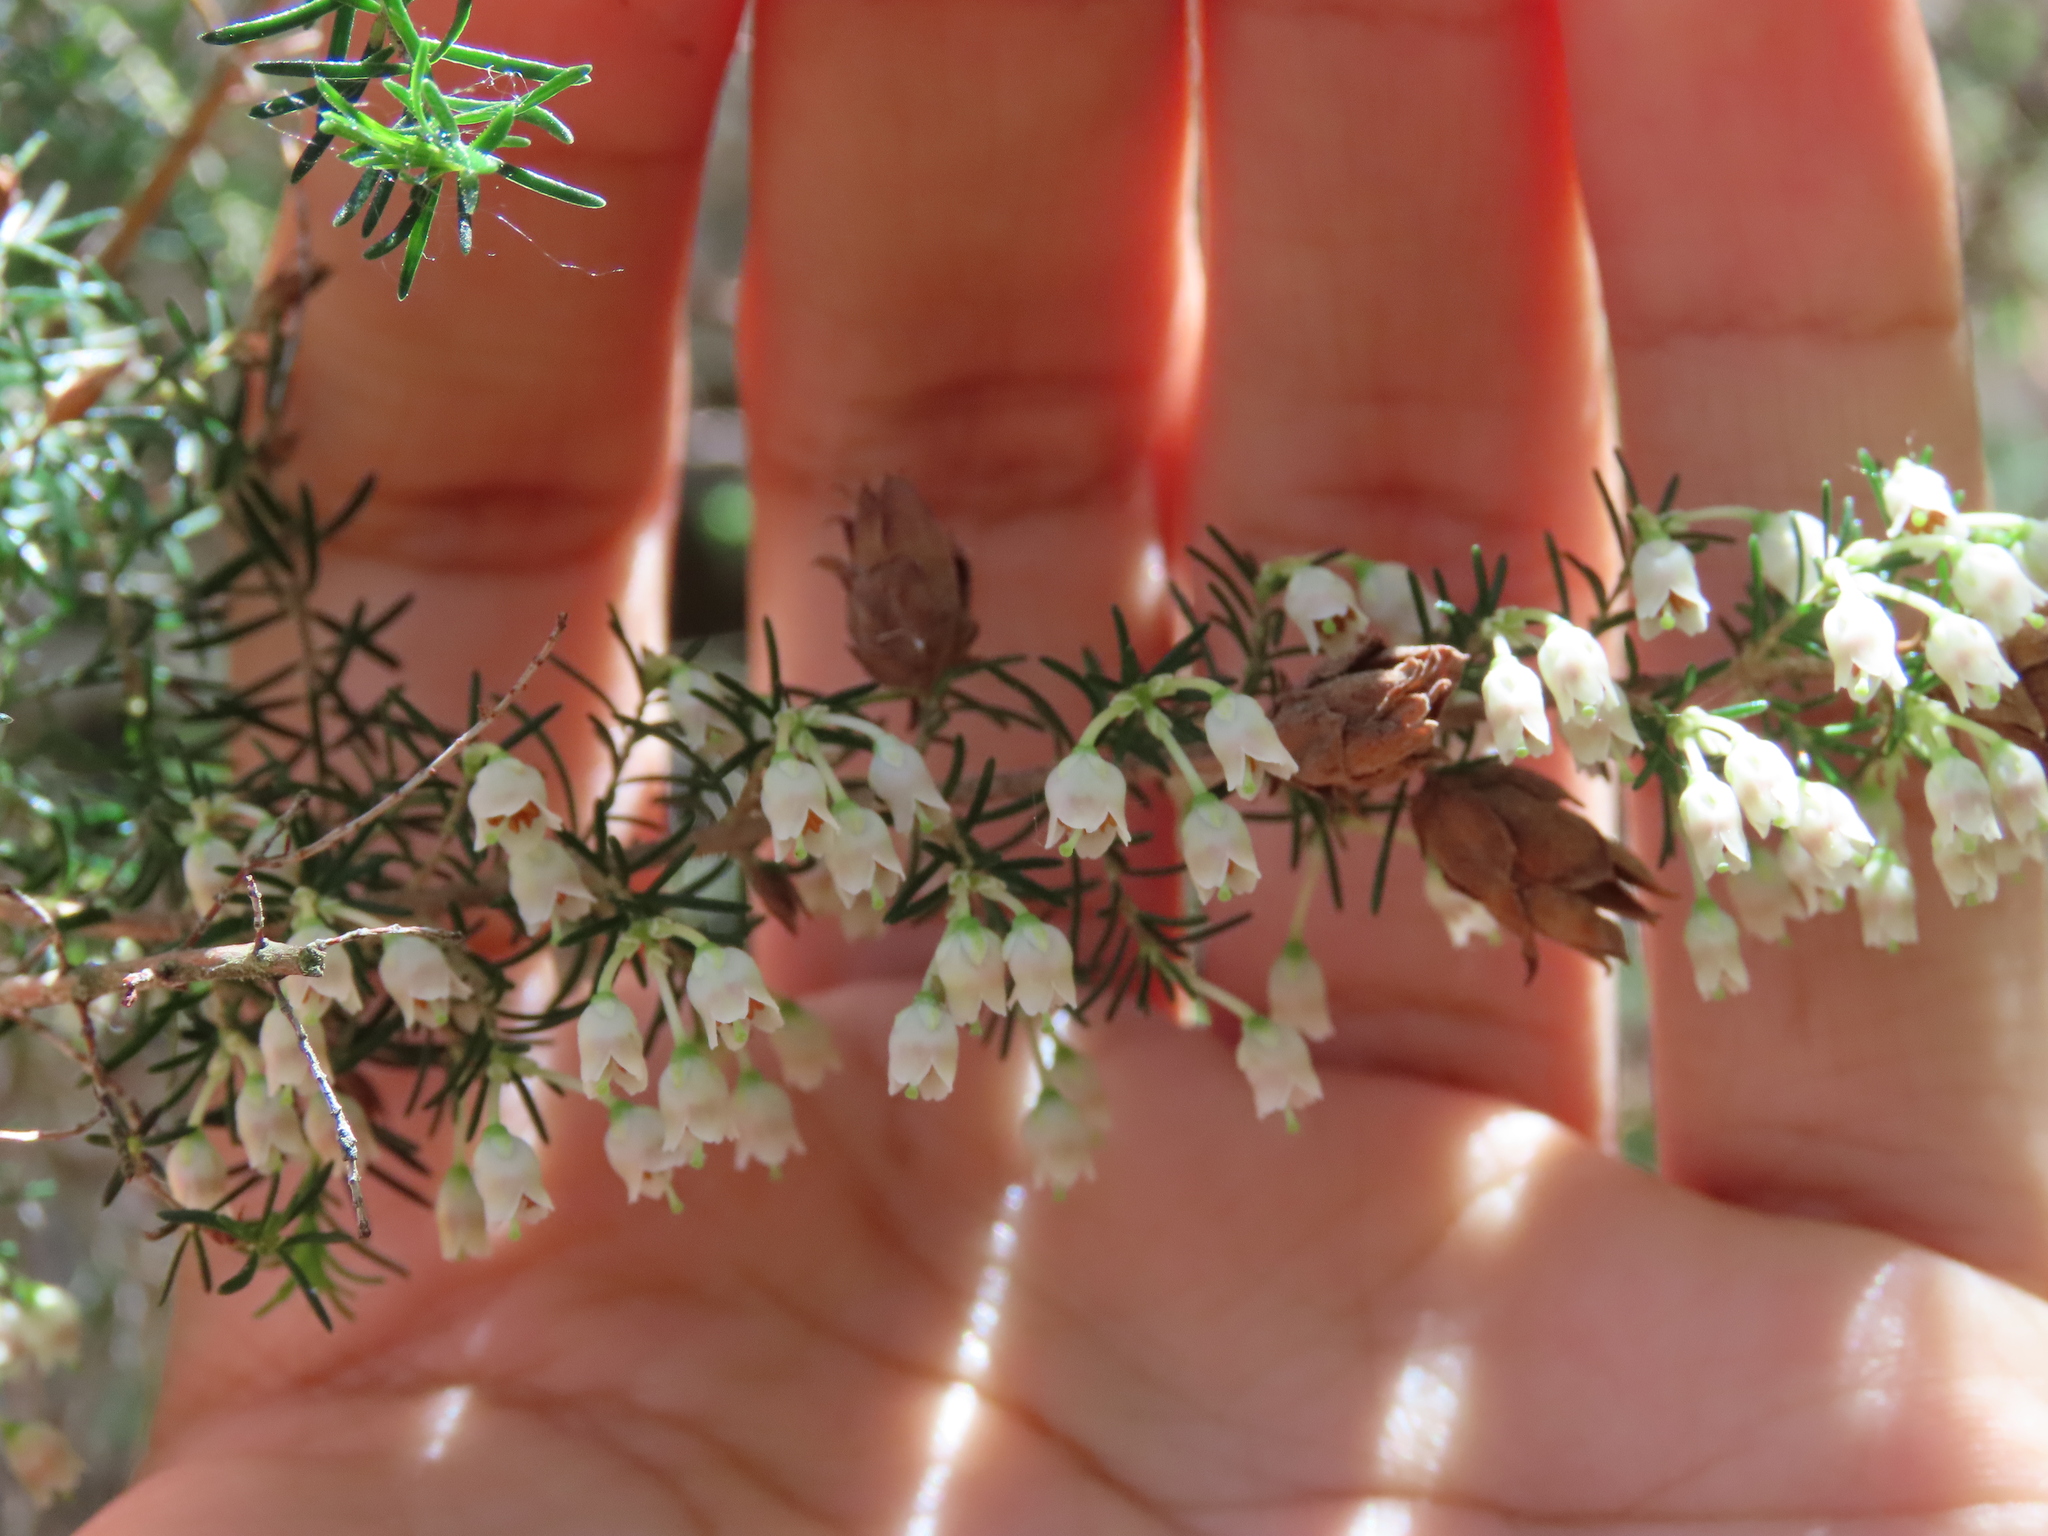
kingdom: Animalia
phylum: Arthropoda
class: Insecta
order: Diptera
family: Cecidomyiidae
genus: Wachtliella
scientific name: Wachtliella ericina
